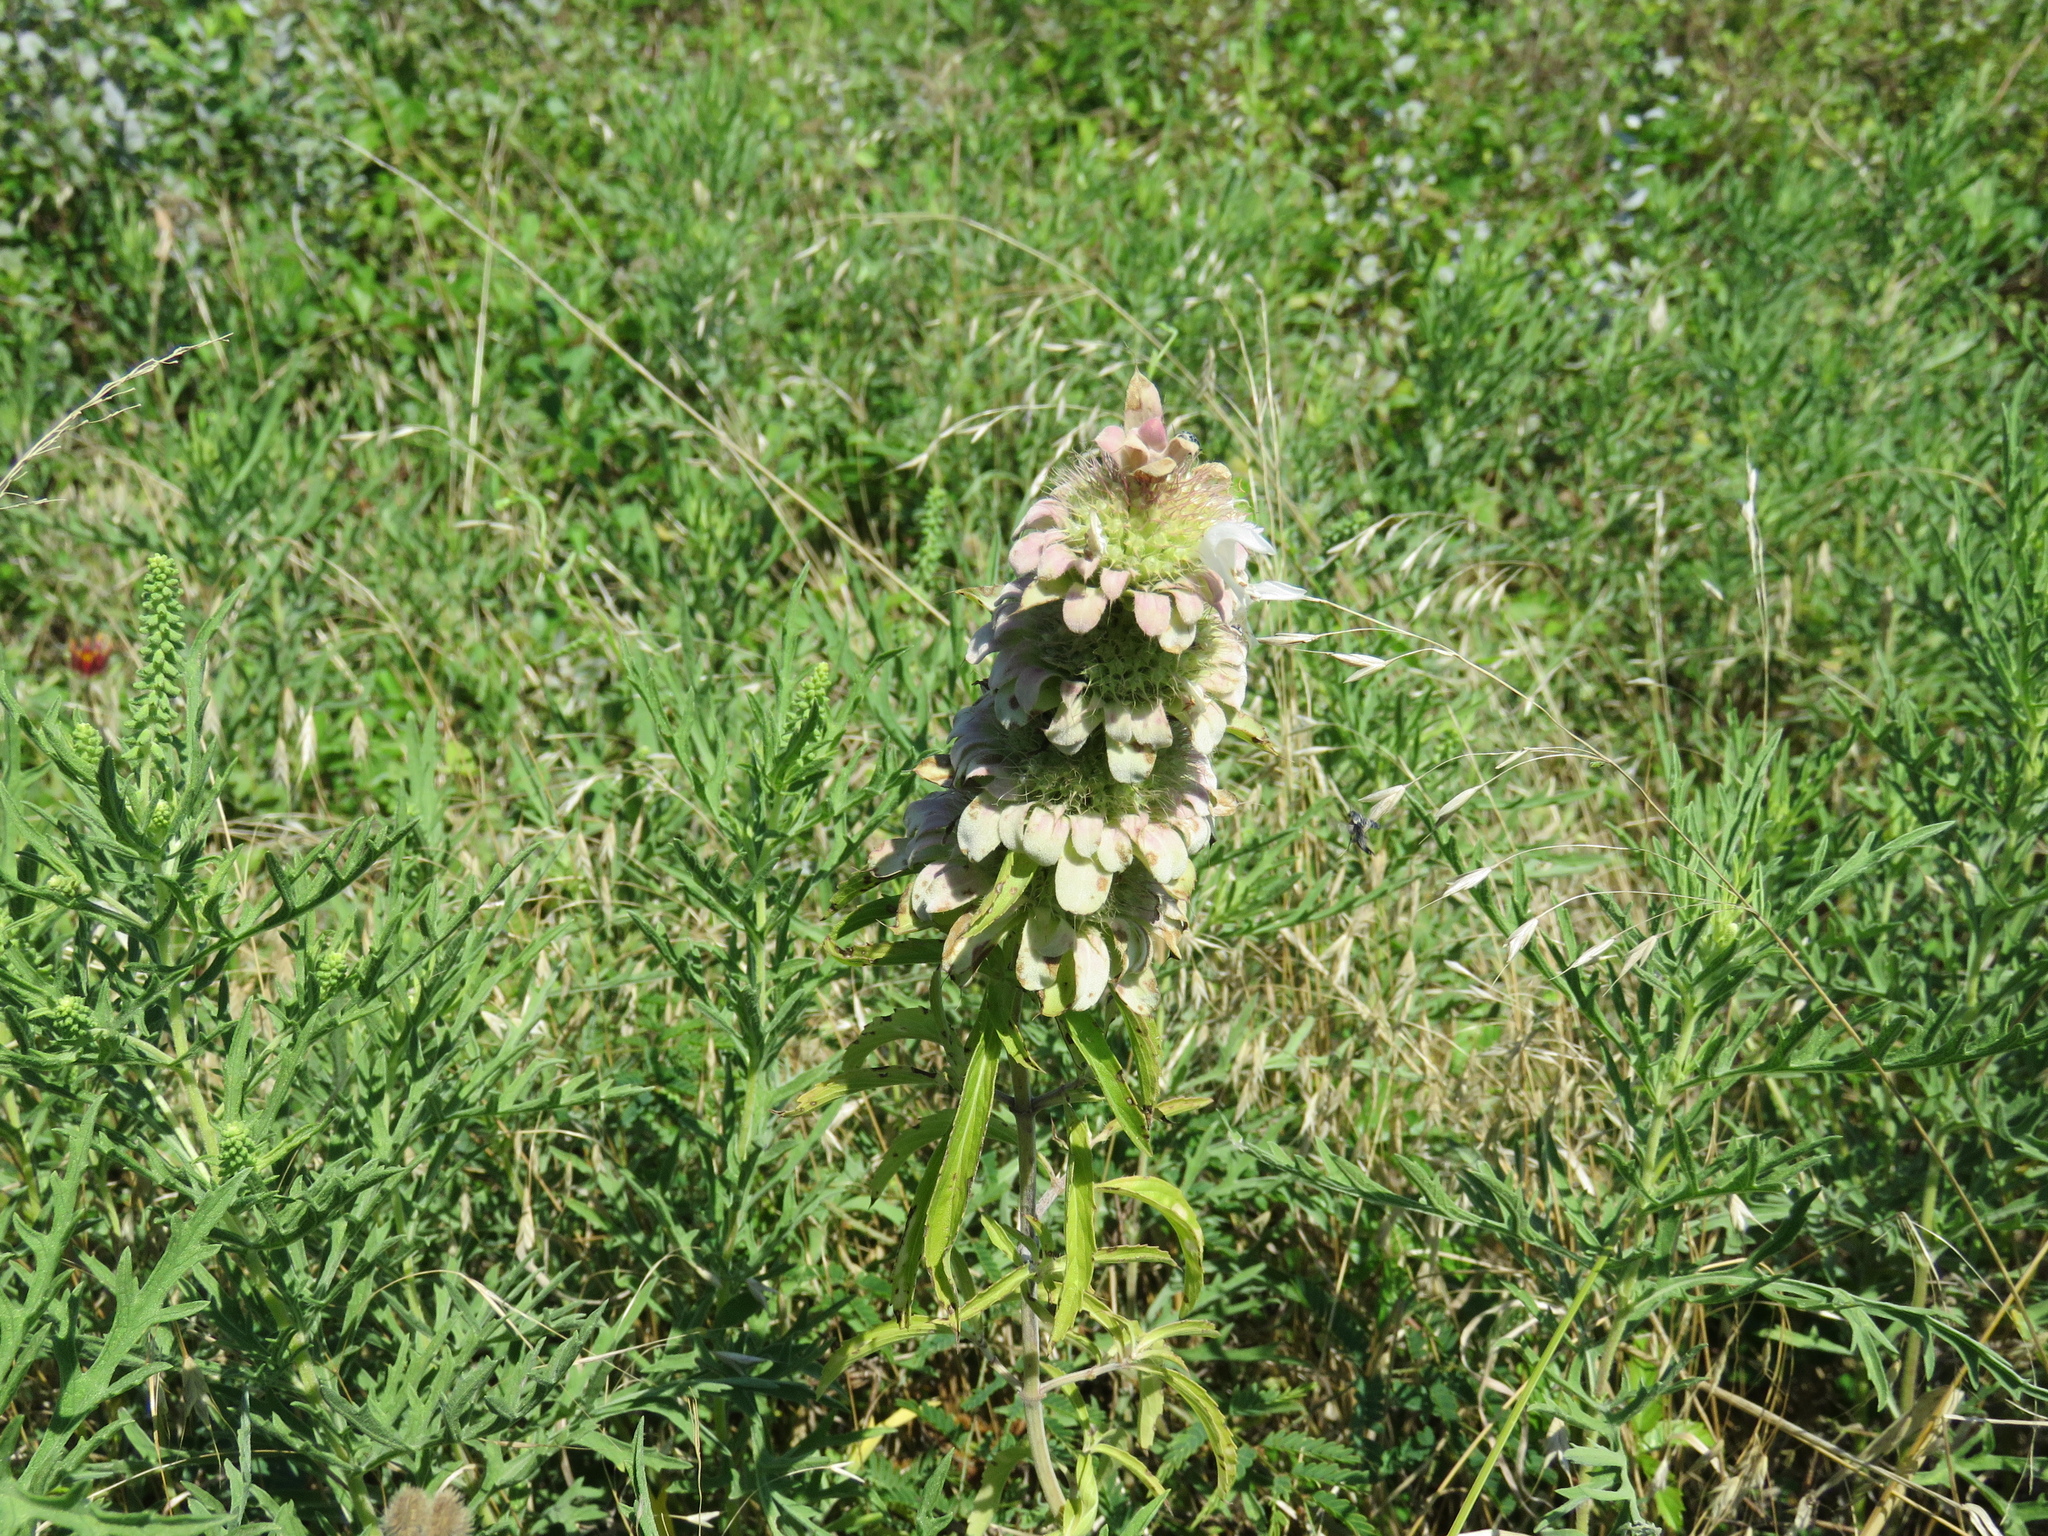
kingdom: Plantae
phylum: Tracheophyta
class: Magnoliopsida
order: Lamiales
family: Lamiaceae
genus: Monarda
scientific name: Monarda citriodora
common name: Lemon beebalm
